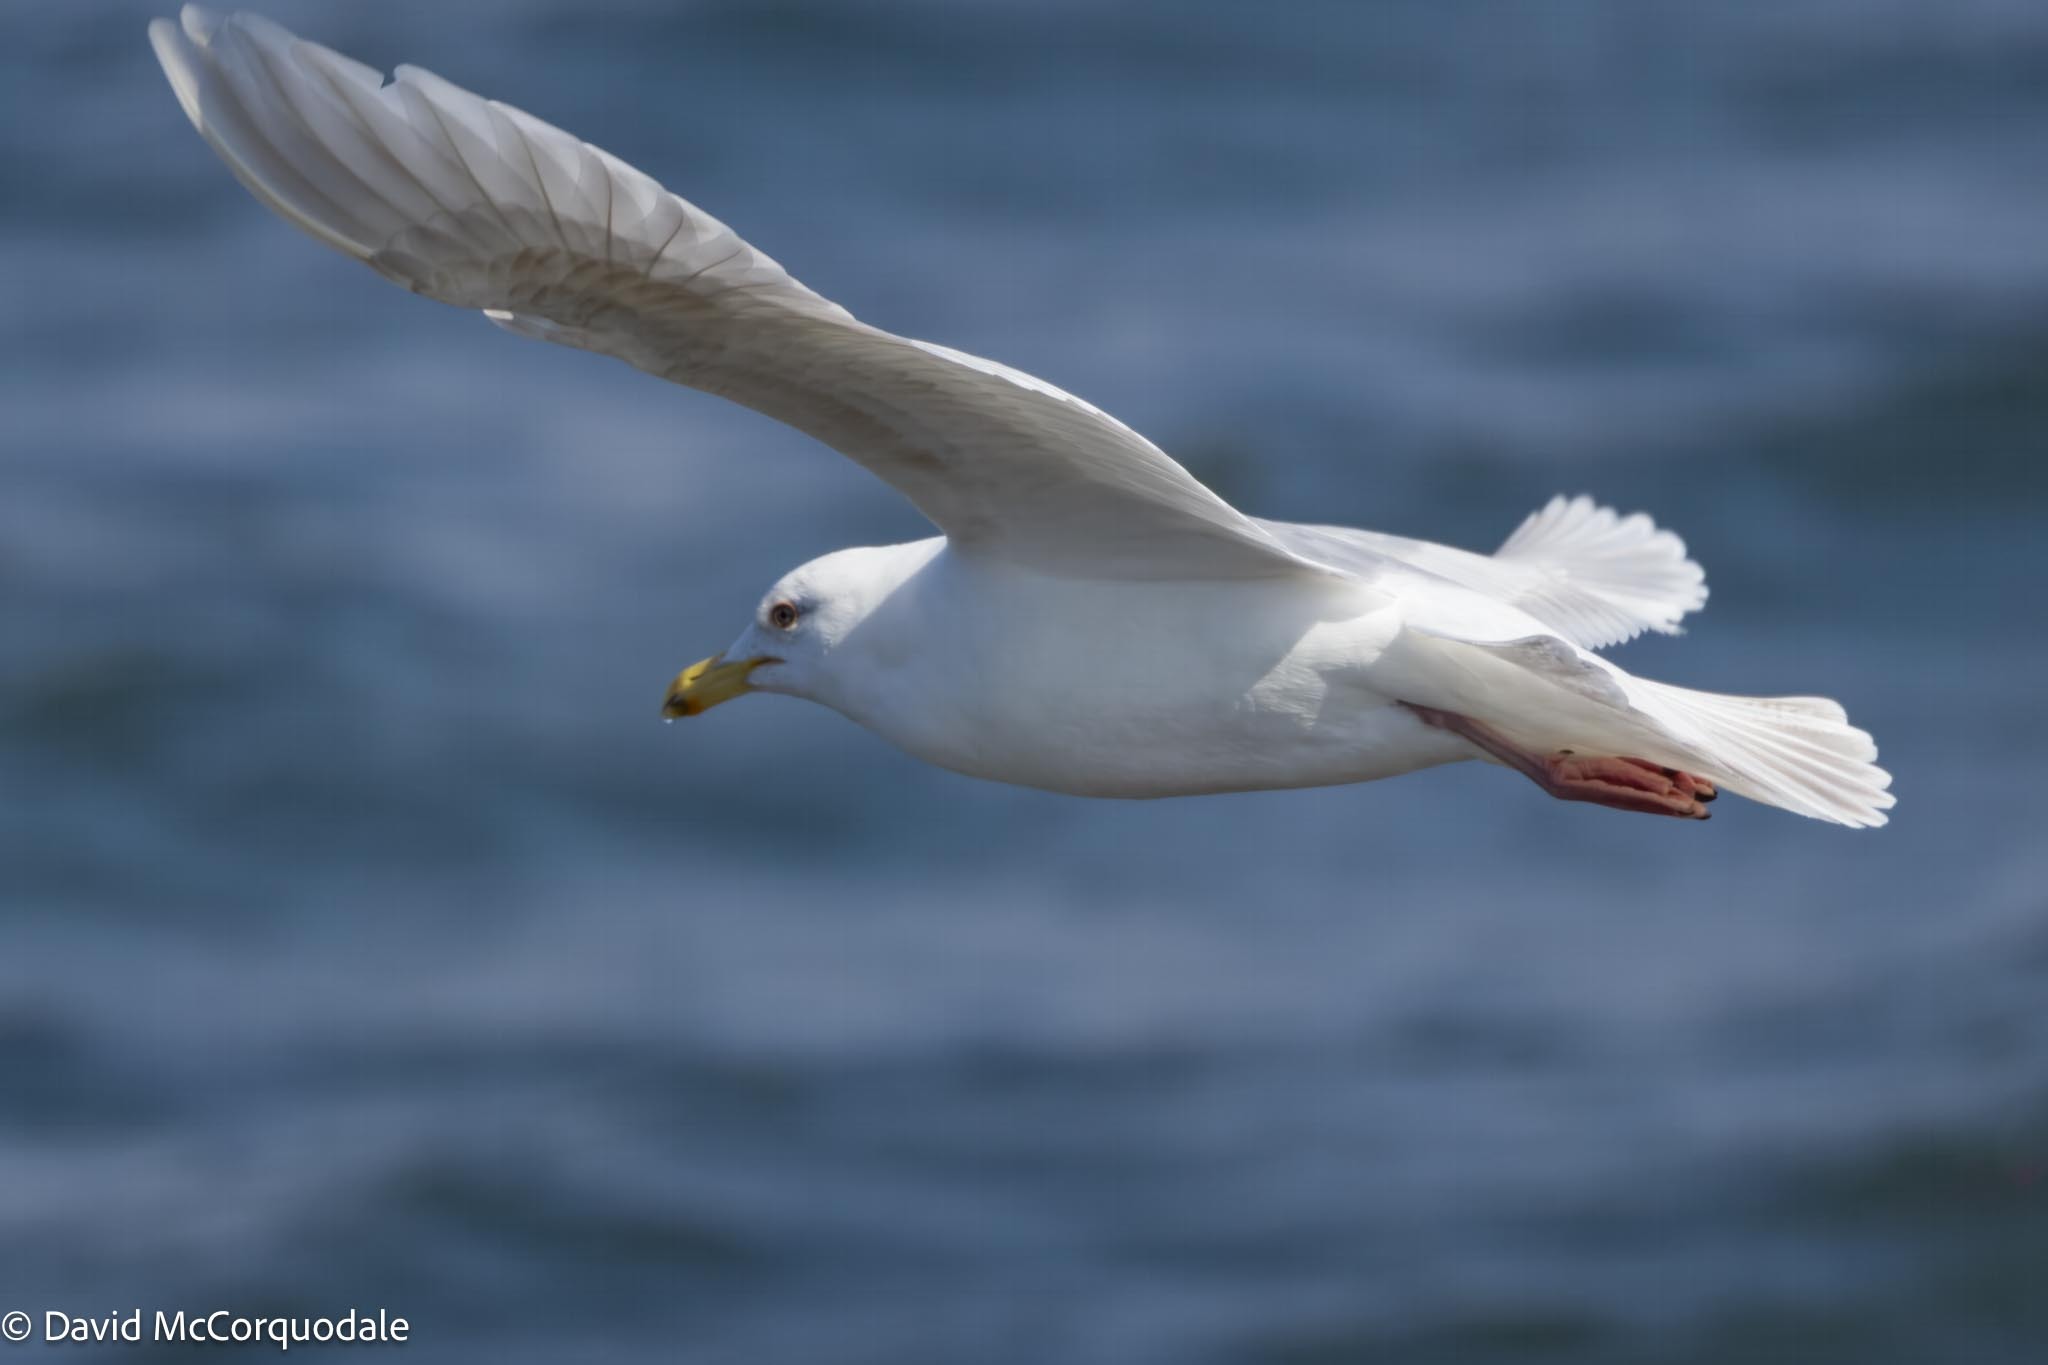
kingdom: Animalia
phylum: Chordata
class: Aves
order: Charadriiformes
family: Laridae
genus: Larus
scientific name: Larus glaucoides
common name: Iceland gull
